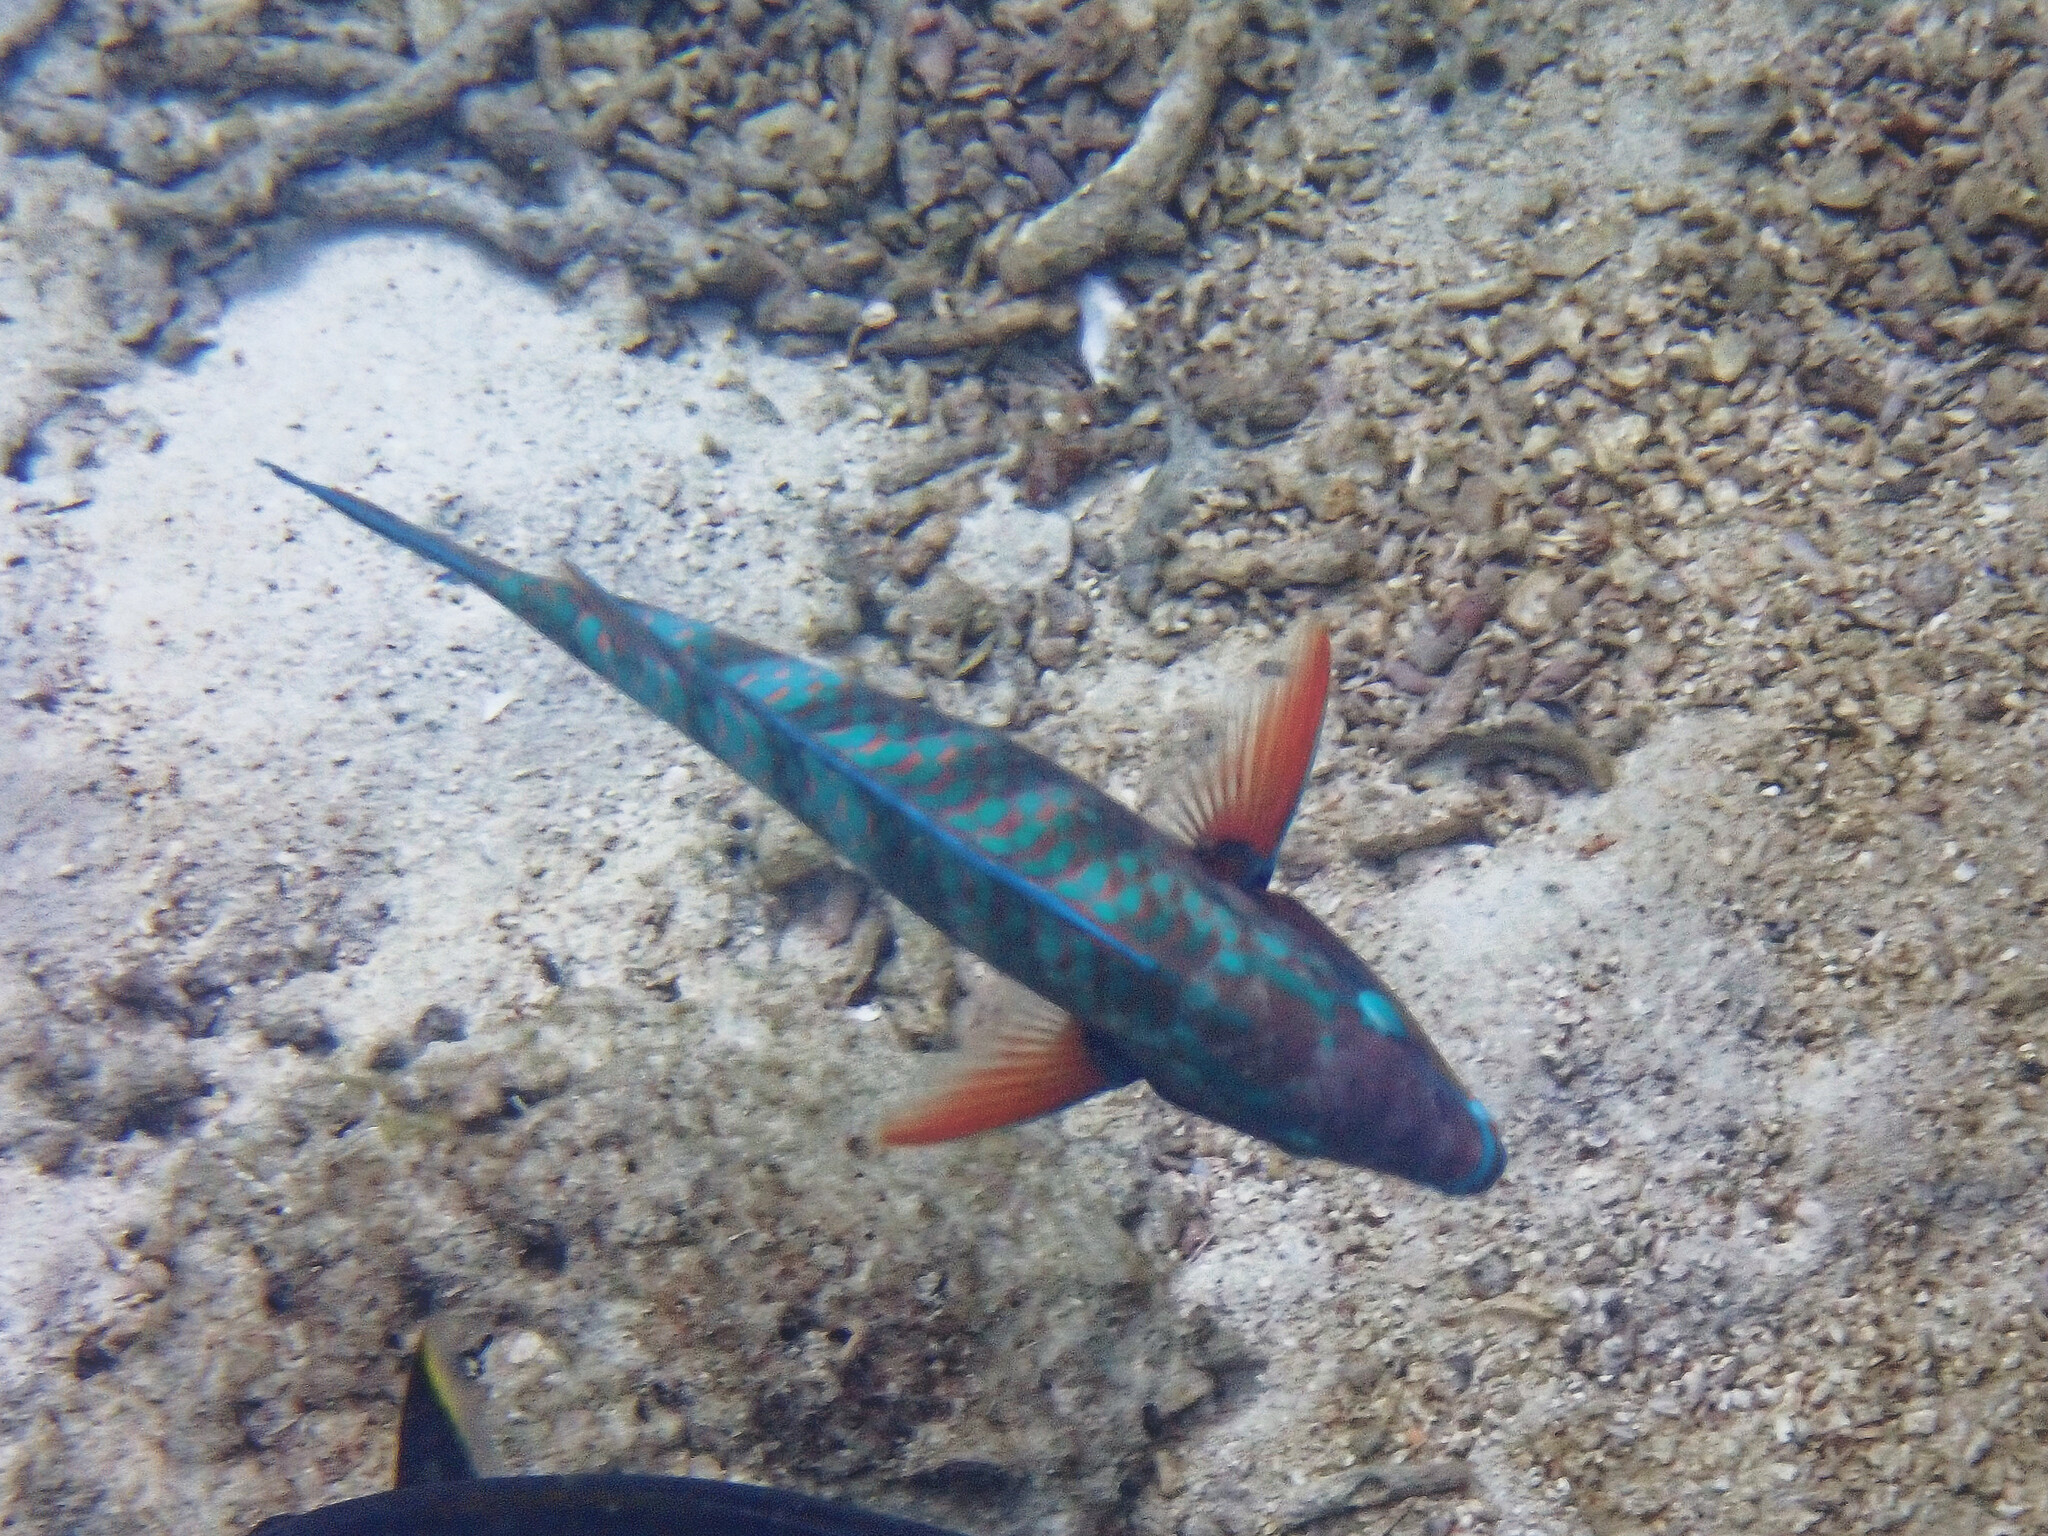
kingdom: Animalia
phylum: Chordata
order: Perciformes
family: Scaridae
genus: Scarus
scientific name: Scarus russelii
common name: Eclipse parrotfish
